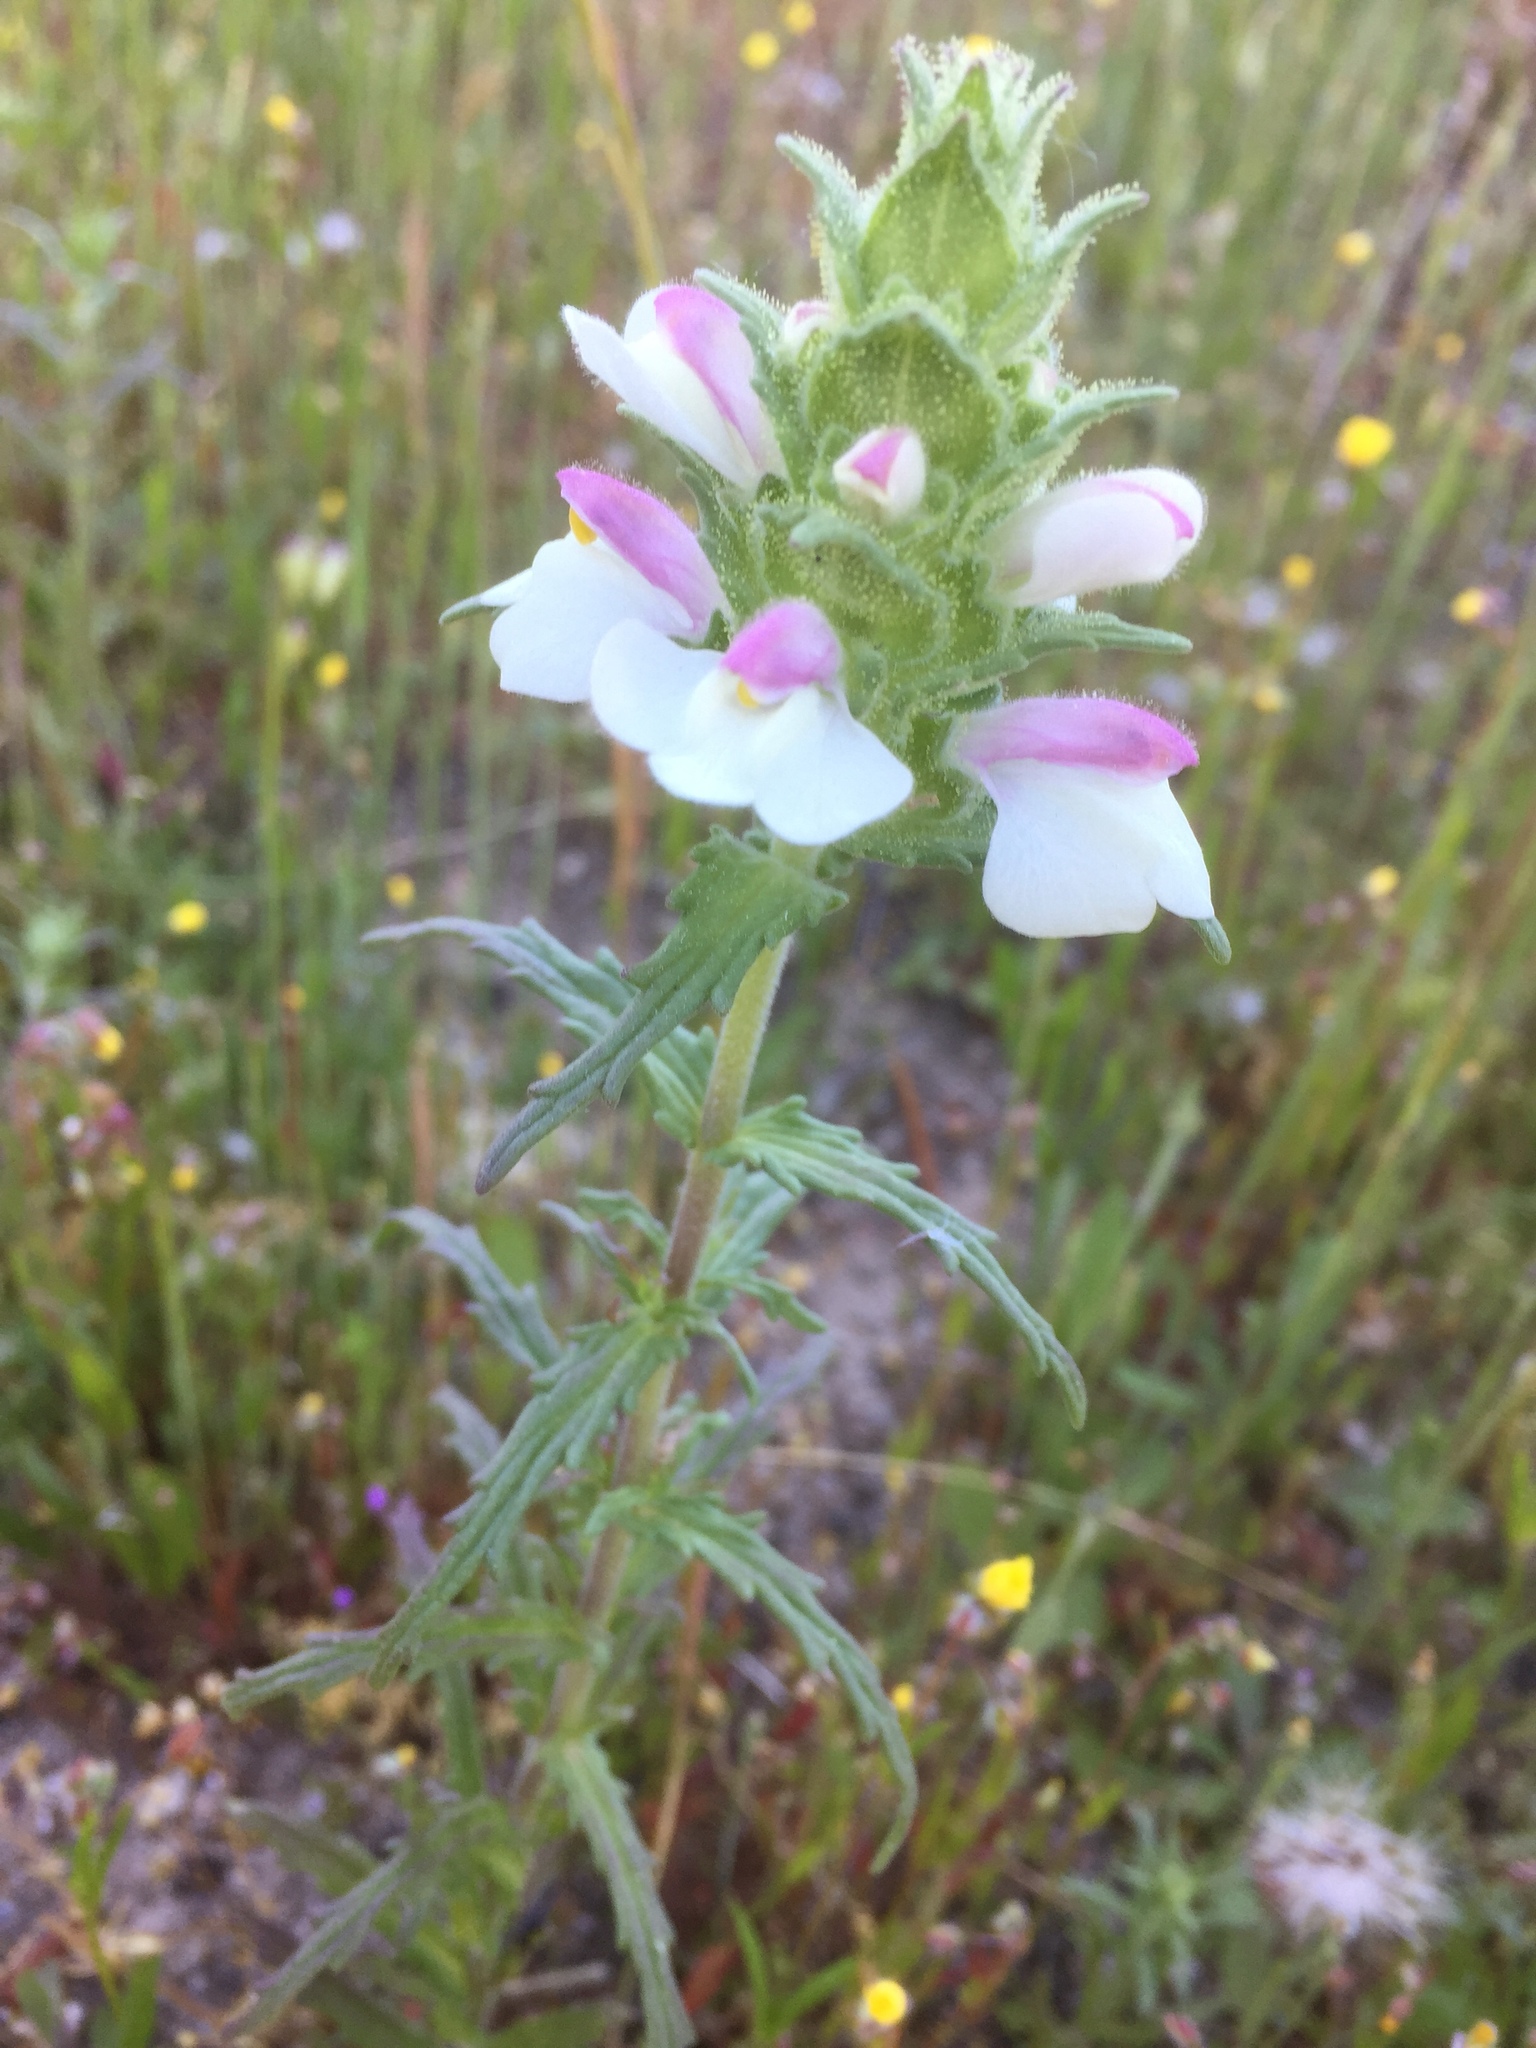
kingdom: Plantae
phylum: Tracheophyta
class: Magnoliopsida
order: Lamiales
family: Orobanchaceae
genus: Bellardia
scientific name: Bellardia trixago
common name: Mediterranean lineseed
